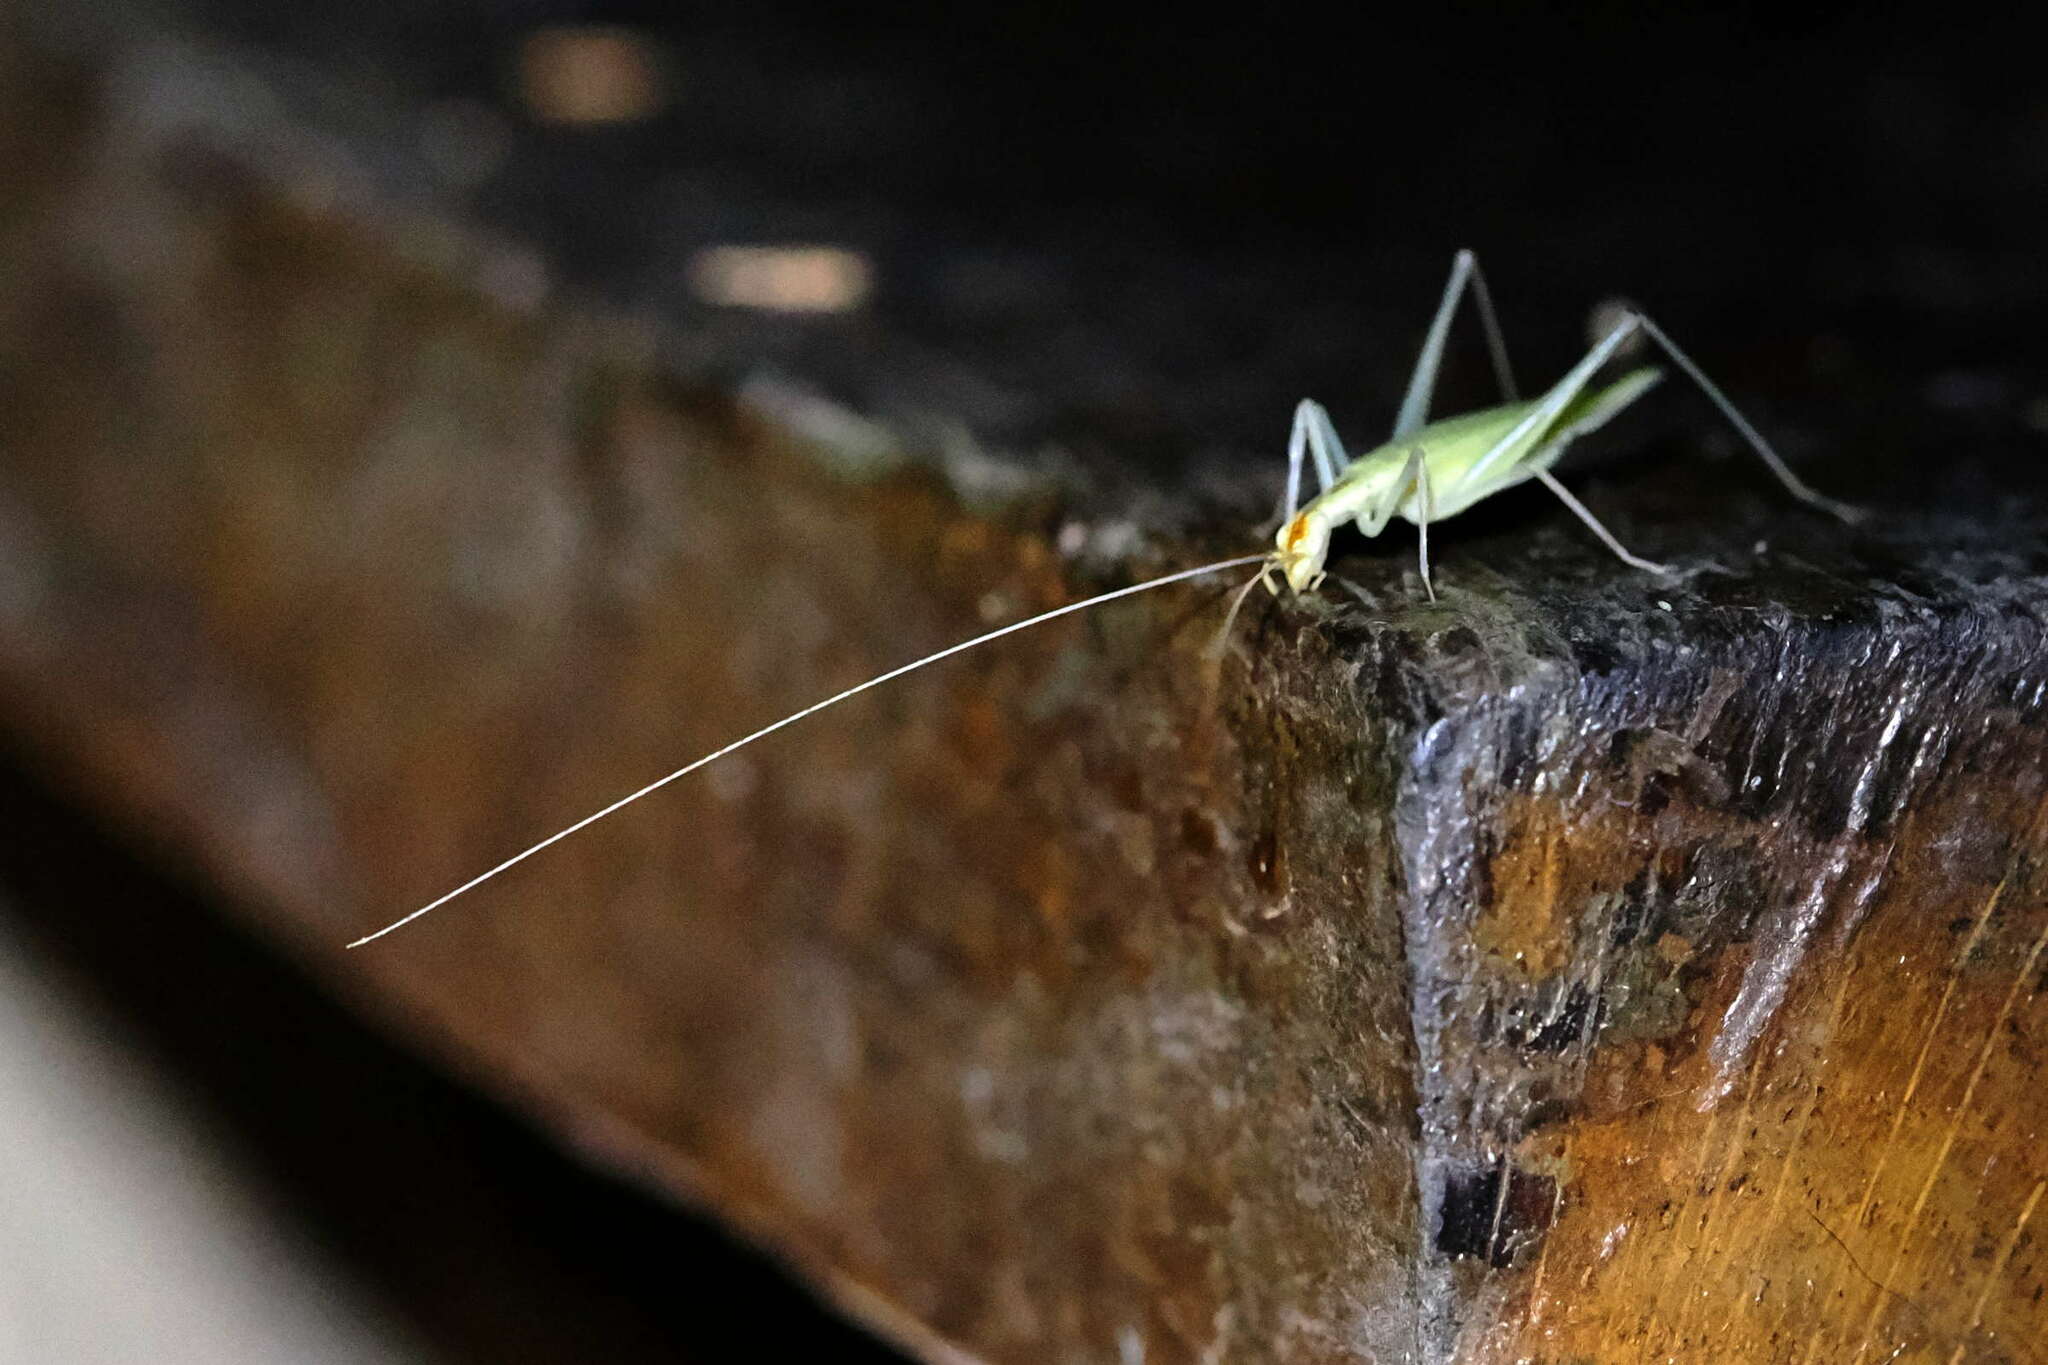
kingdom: Animalia
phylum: Arthropoda
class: Insecta
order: Orthoptera
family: Gryllidae
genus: Oecanthus
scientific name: Oecanthus niveus
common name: Narrow-winged tree cricket
